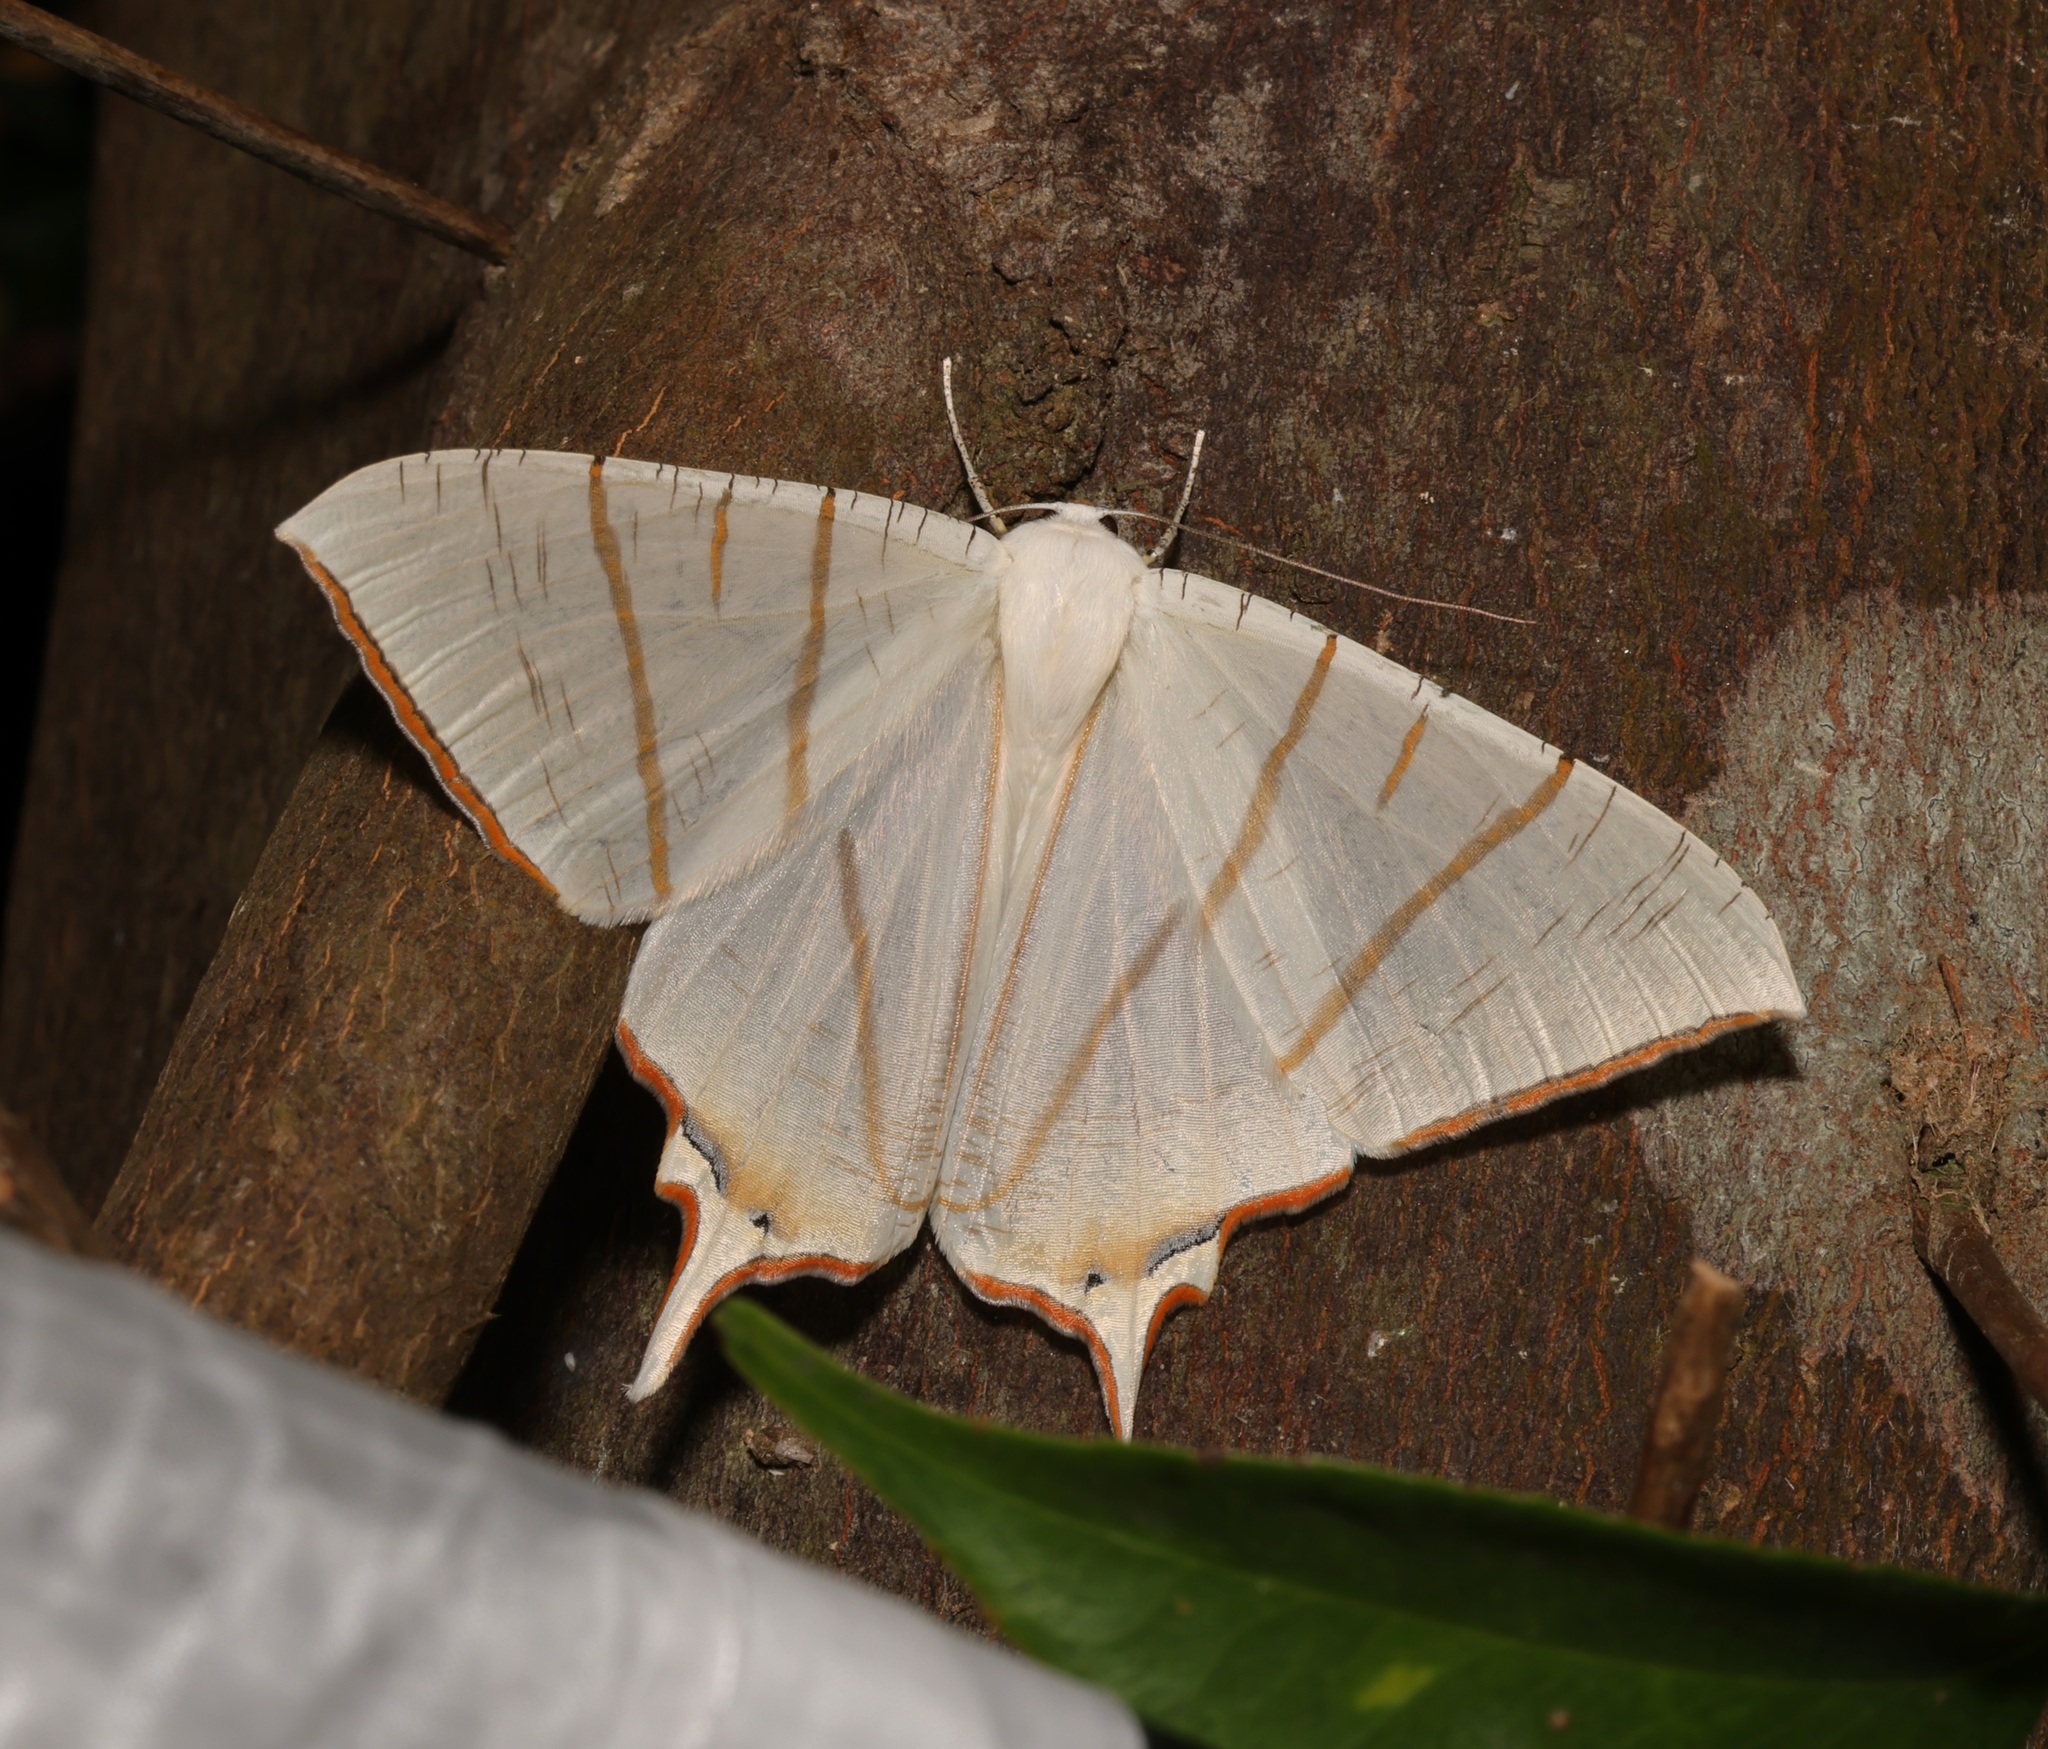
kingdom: Animalia
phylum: Arthropoda
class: Insecta
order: Lepidoptera
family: Geometridae
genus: Ourapteryx
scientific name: Ourapteryx clara
